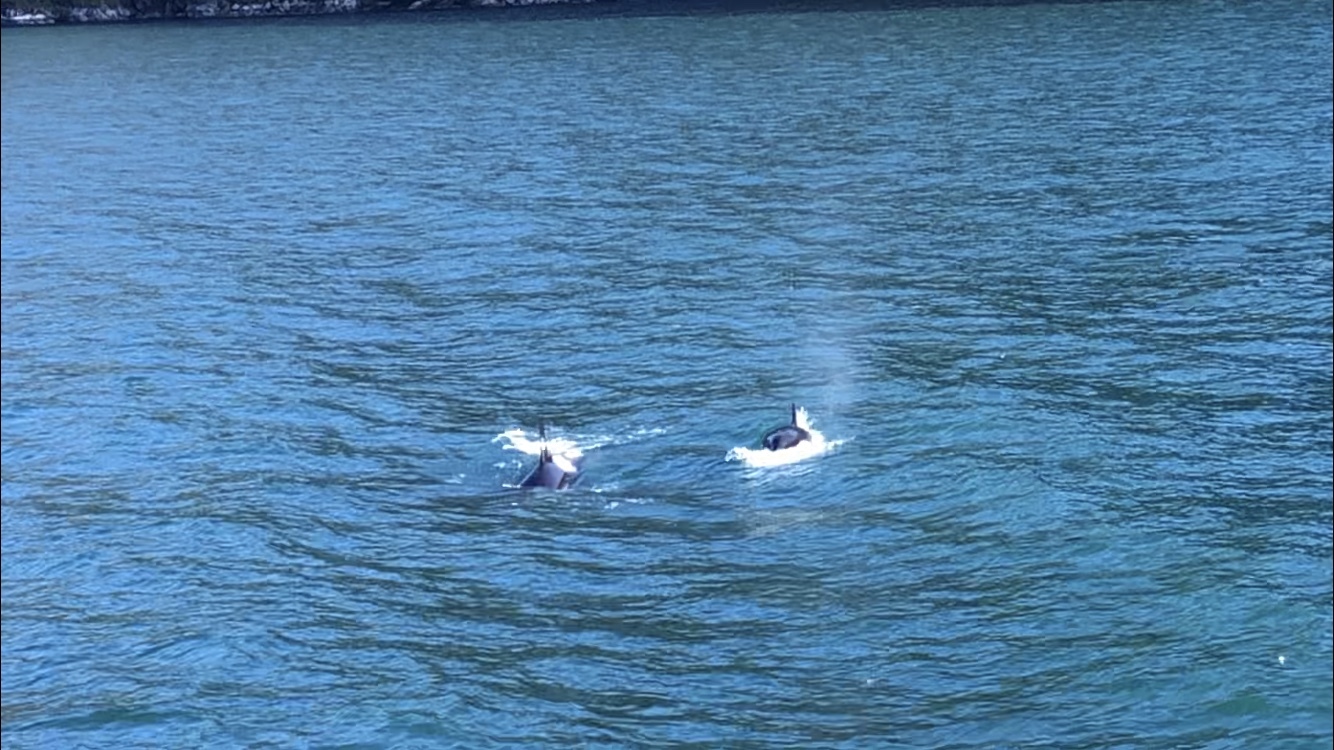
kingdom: Animalia
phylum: Chordata
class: Mammalia
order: Cetacea
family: Delphinidae
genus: Orcinus
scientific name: Orcinus orca
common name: Killer whale
